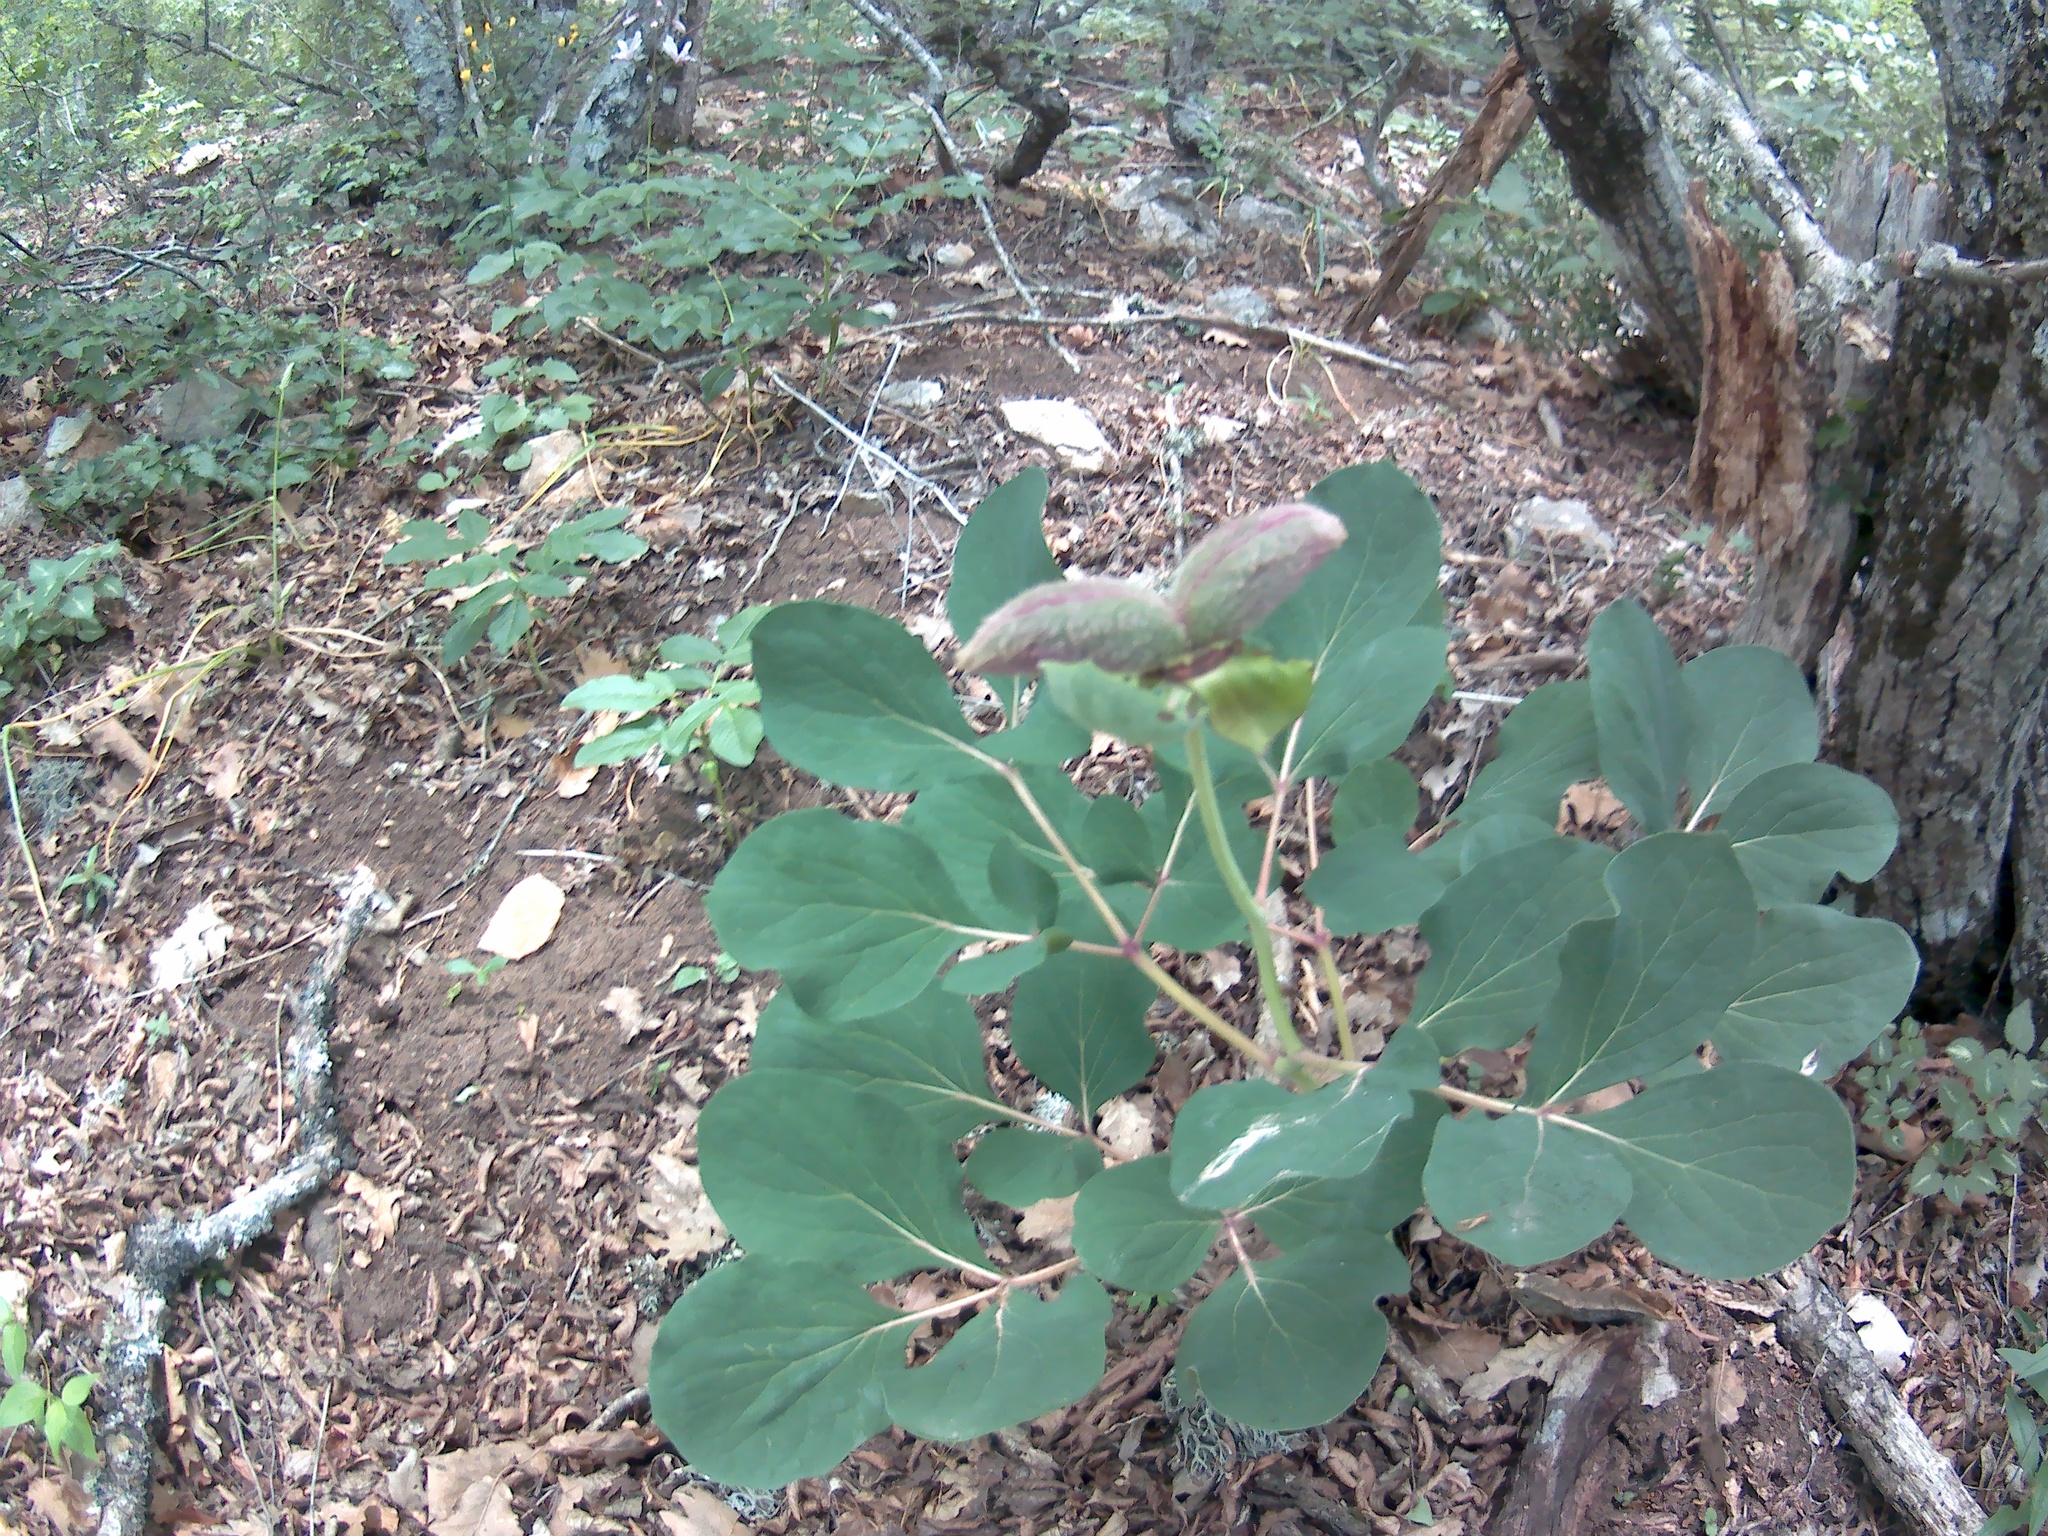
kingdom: Plantae
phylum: Tracheophyta
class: Magnoliopsida
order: Saxifragales
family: Paeoniaceae
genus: Paeonia
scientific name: Paeonia daurica
